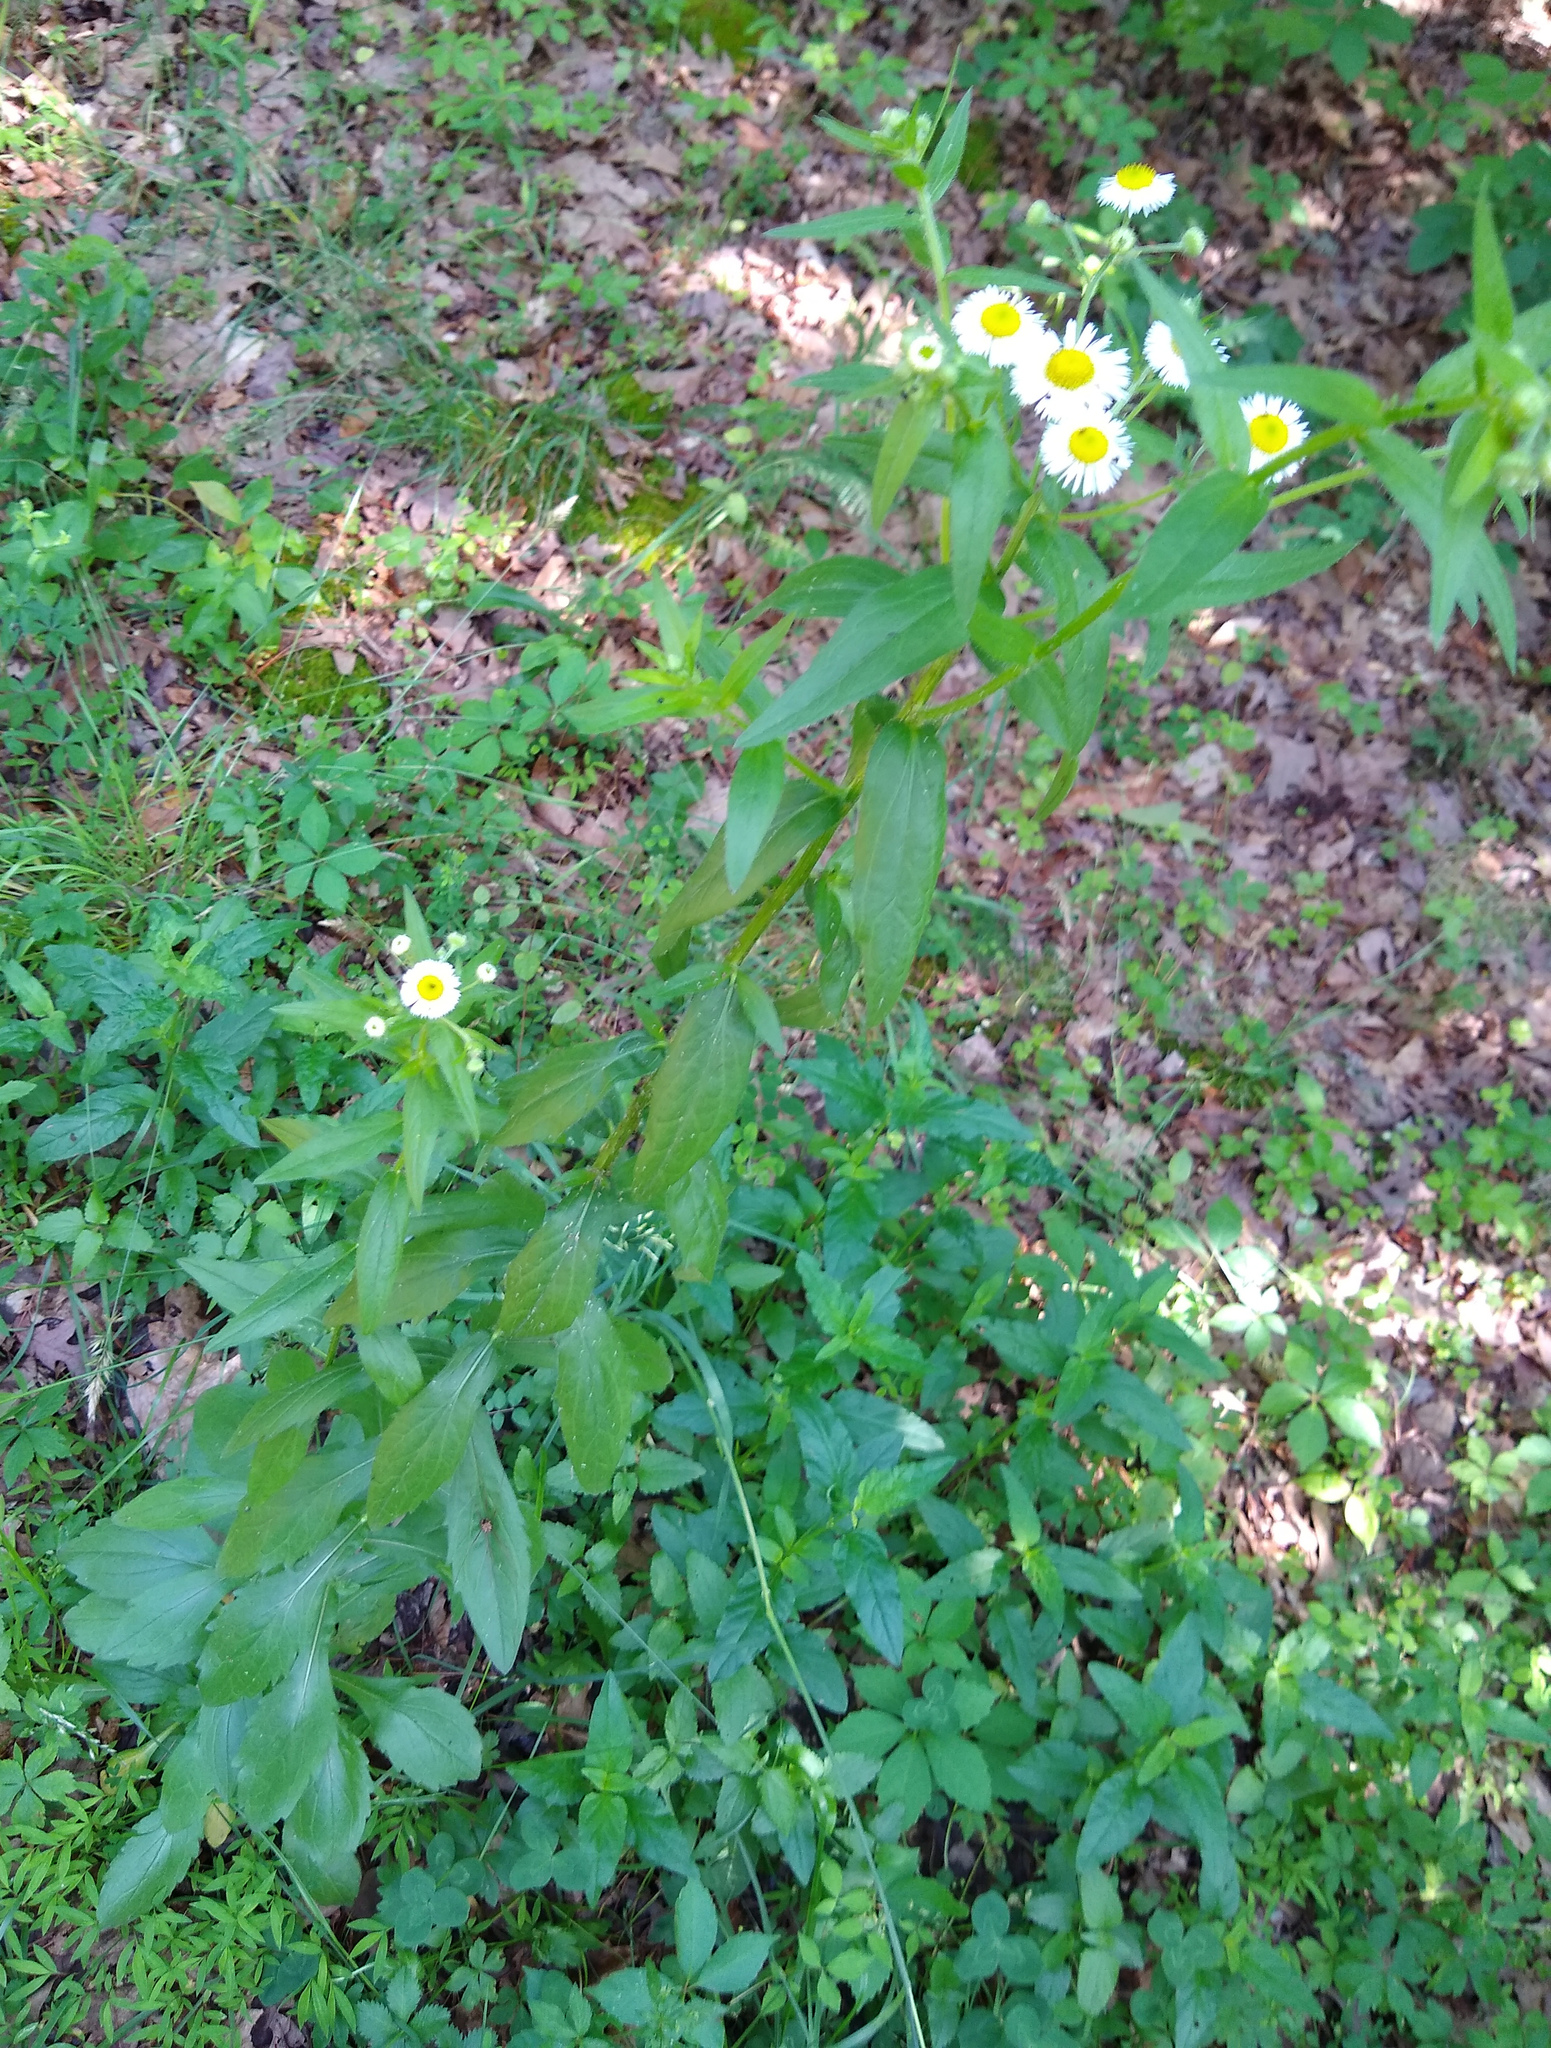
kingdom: Plantae
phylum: Tracheophyta
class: Magnoliopsida
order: Asterales
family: Asteraceae
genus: Erigeron
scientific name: Erigeron annuus
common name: Tall fleabane
